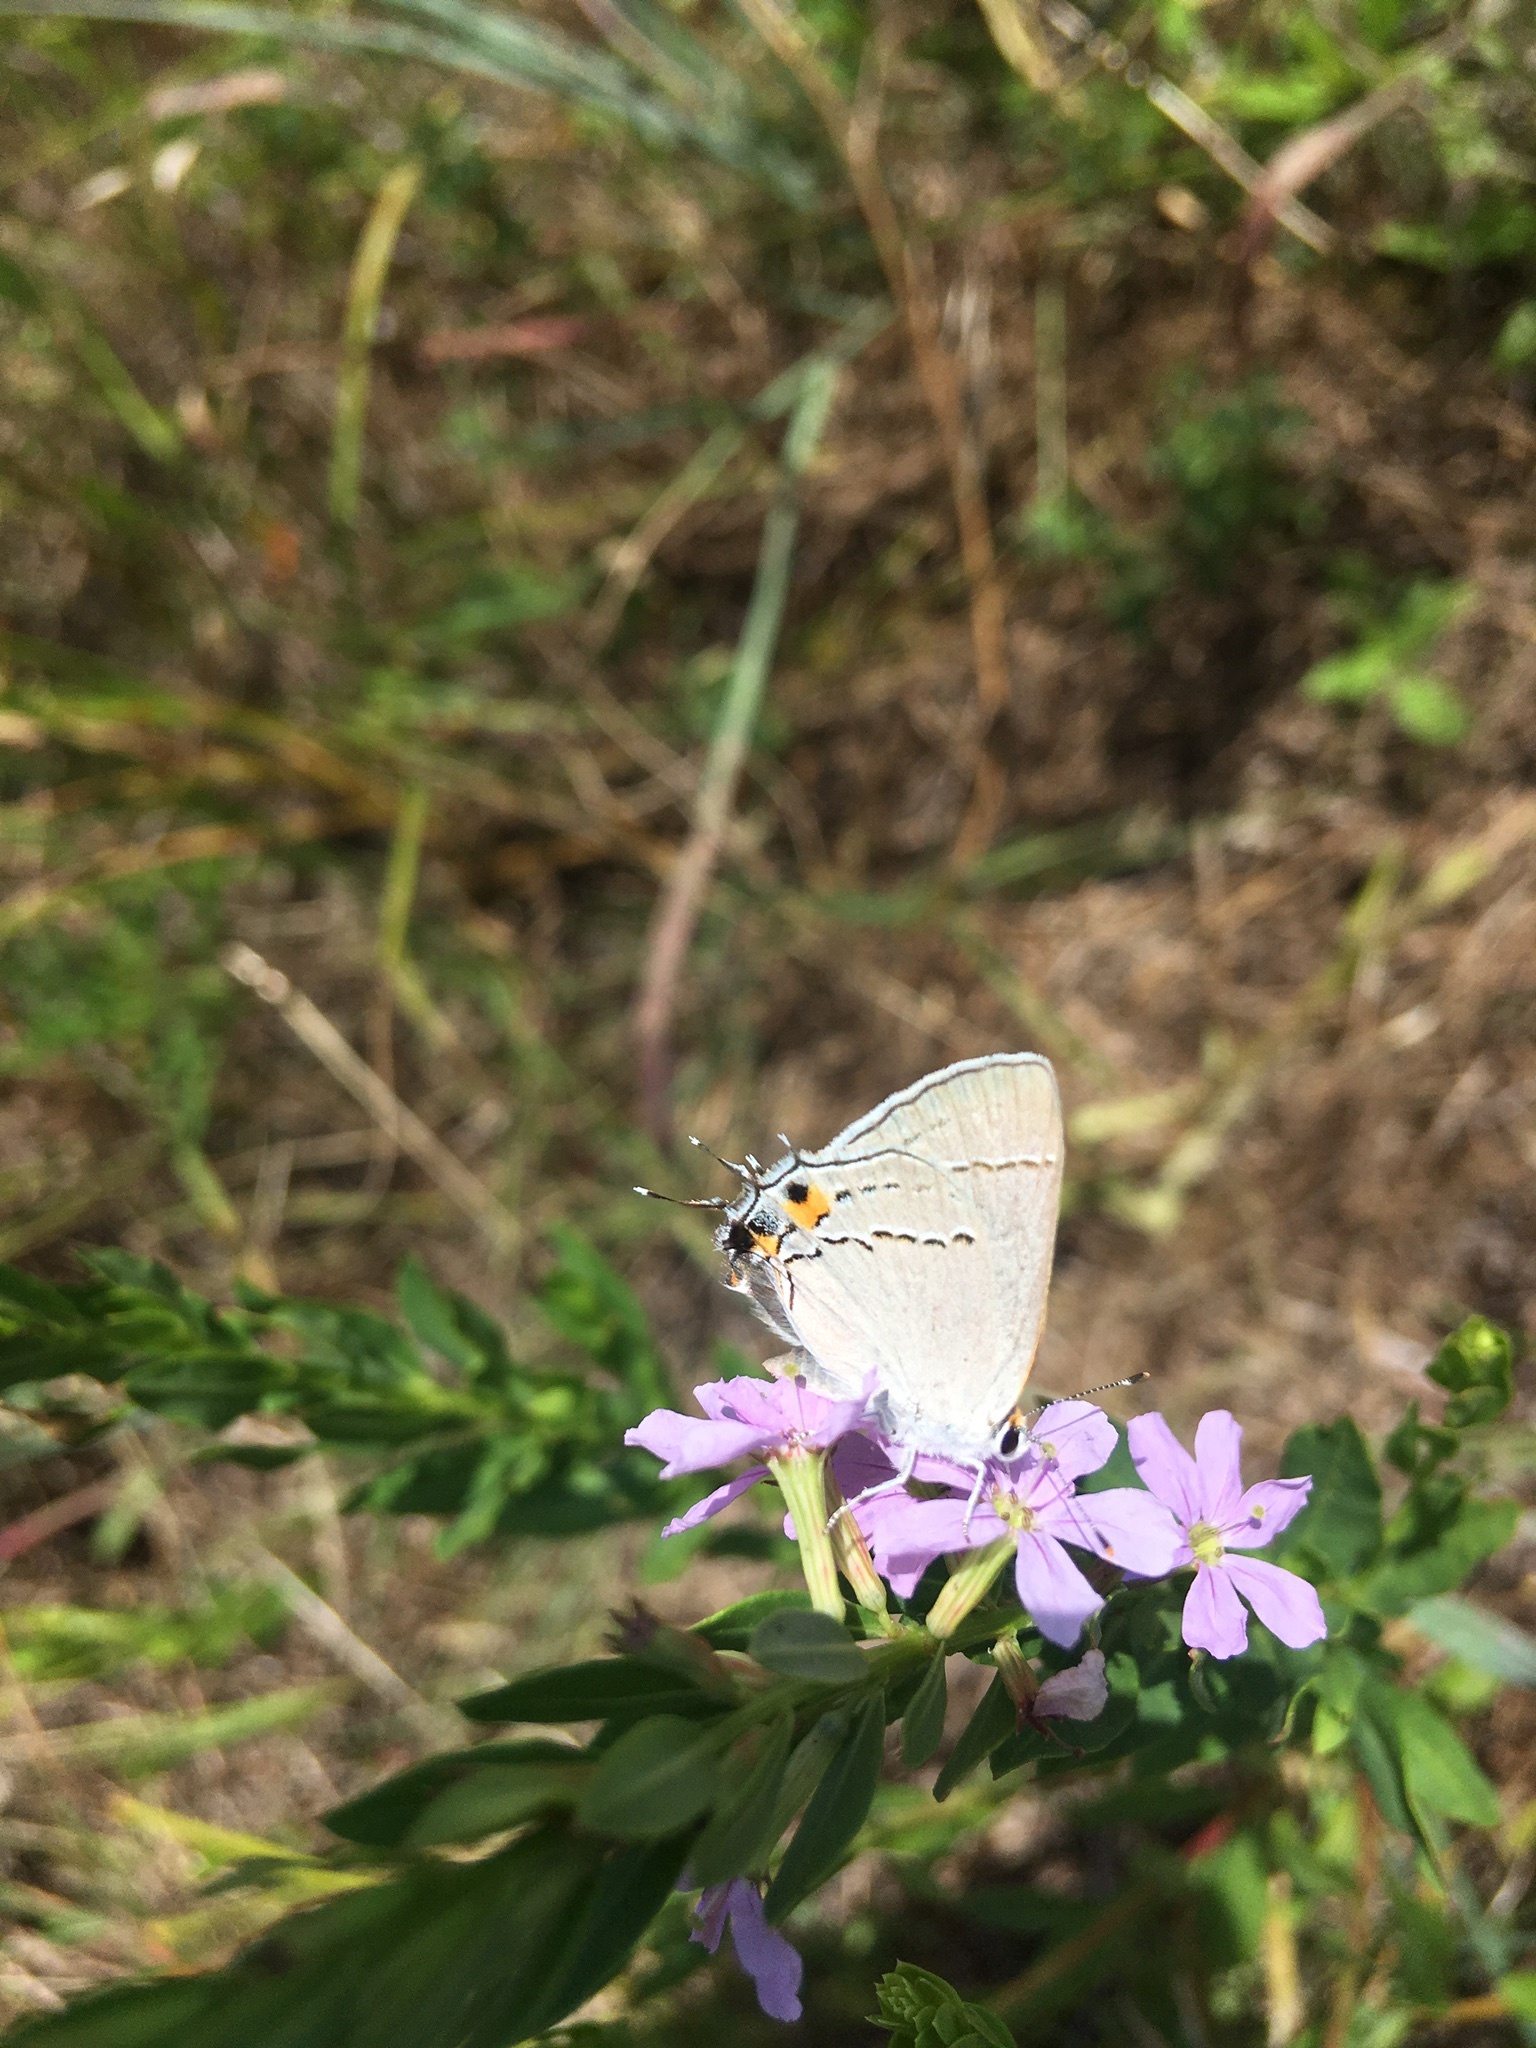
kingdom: Animalia
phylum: Arthropoda
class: Insecta
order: Lepidoptera
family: Lycaenidae
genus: Strymon
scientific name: Strymon melinus
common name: Gray hairstreak
